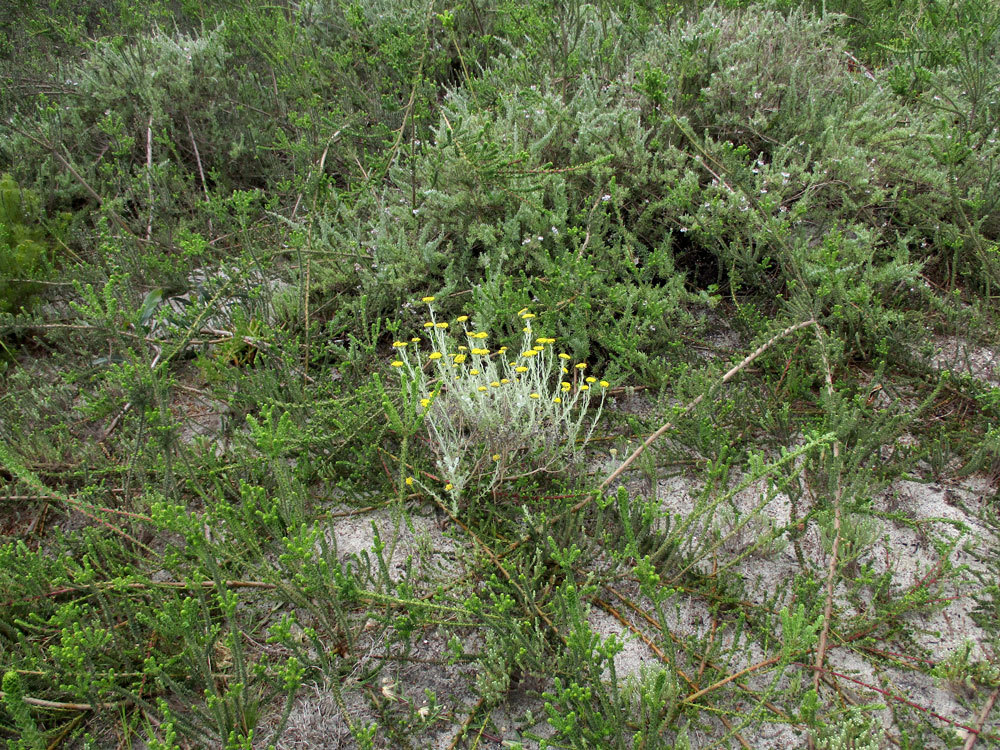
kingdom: Plantae
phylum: Tracheophyta
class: Magnoliopsida
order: Asterales
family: Asteraceae
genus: Helichrysum
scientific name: Helichrysum dasyanthum
